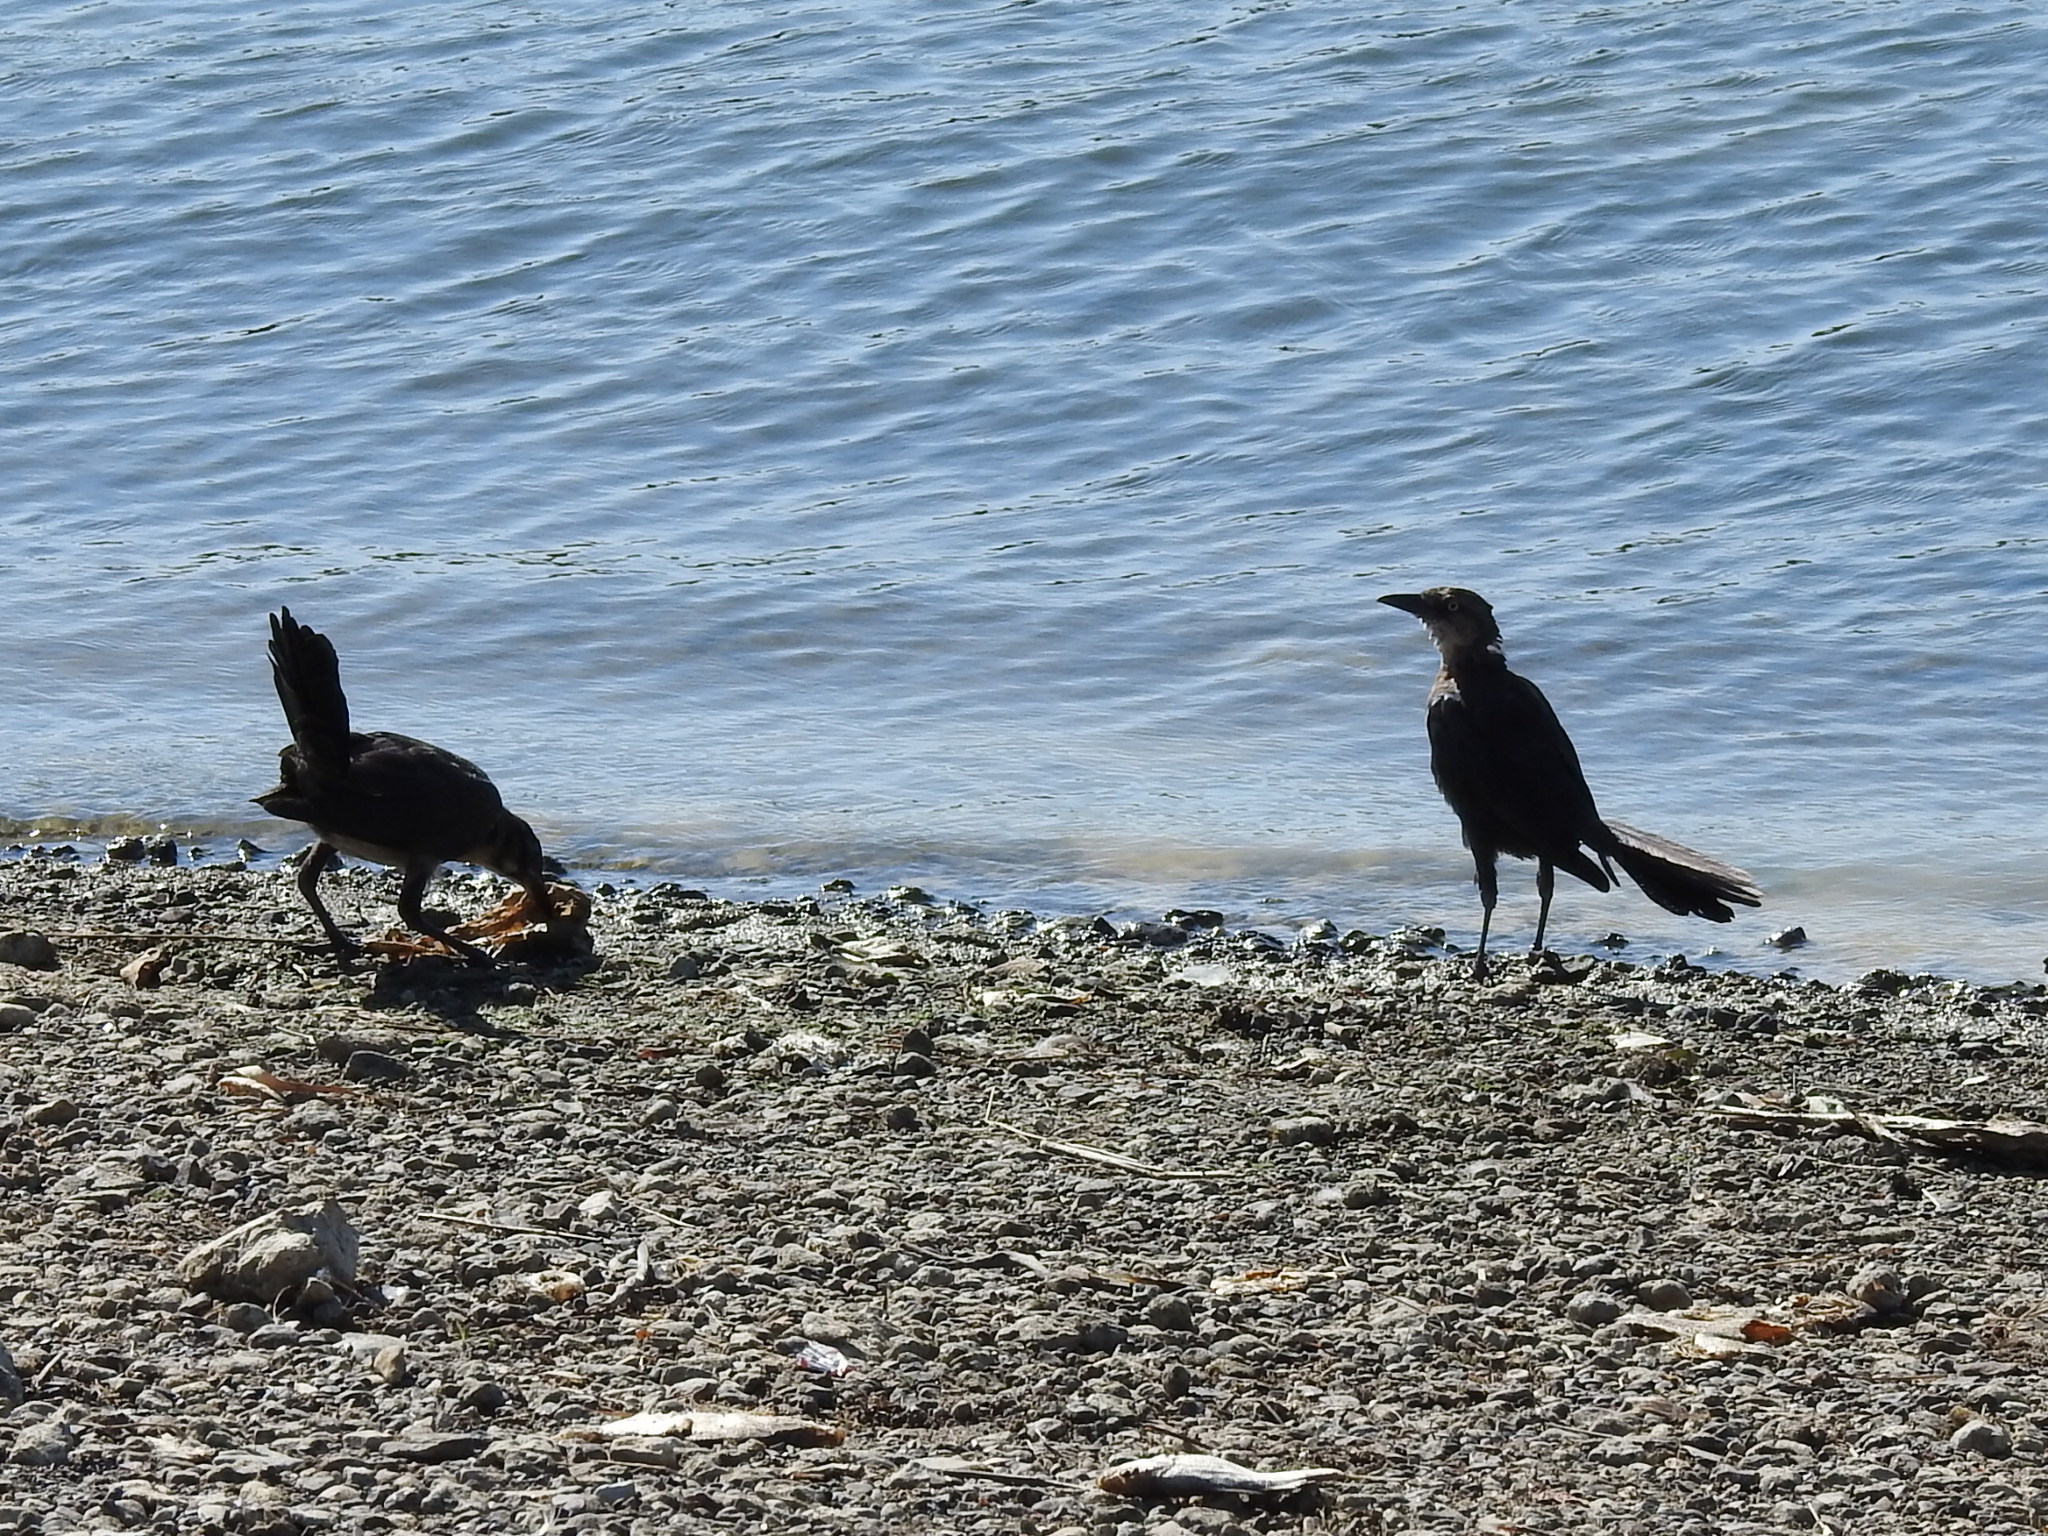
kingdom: Animalia
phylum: Chordata
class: Aves
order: Passeriformes
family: Icteridae
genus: Quiscalus
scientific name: Quiscalus mexicanus
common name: Great-tailed grackle
